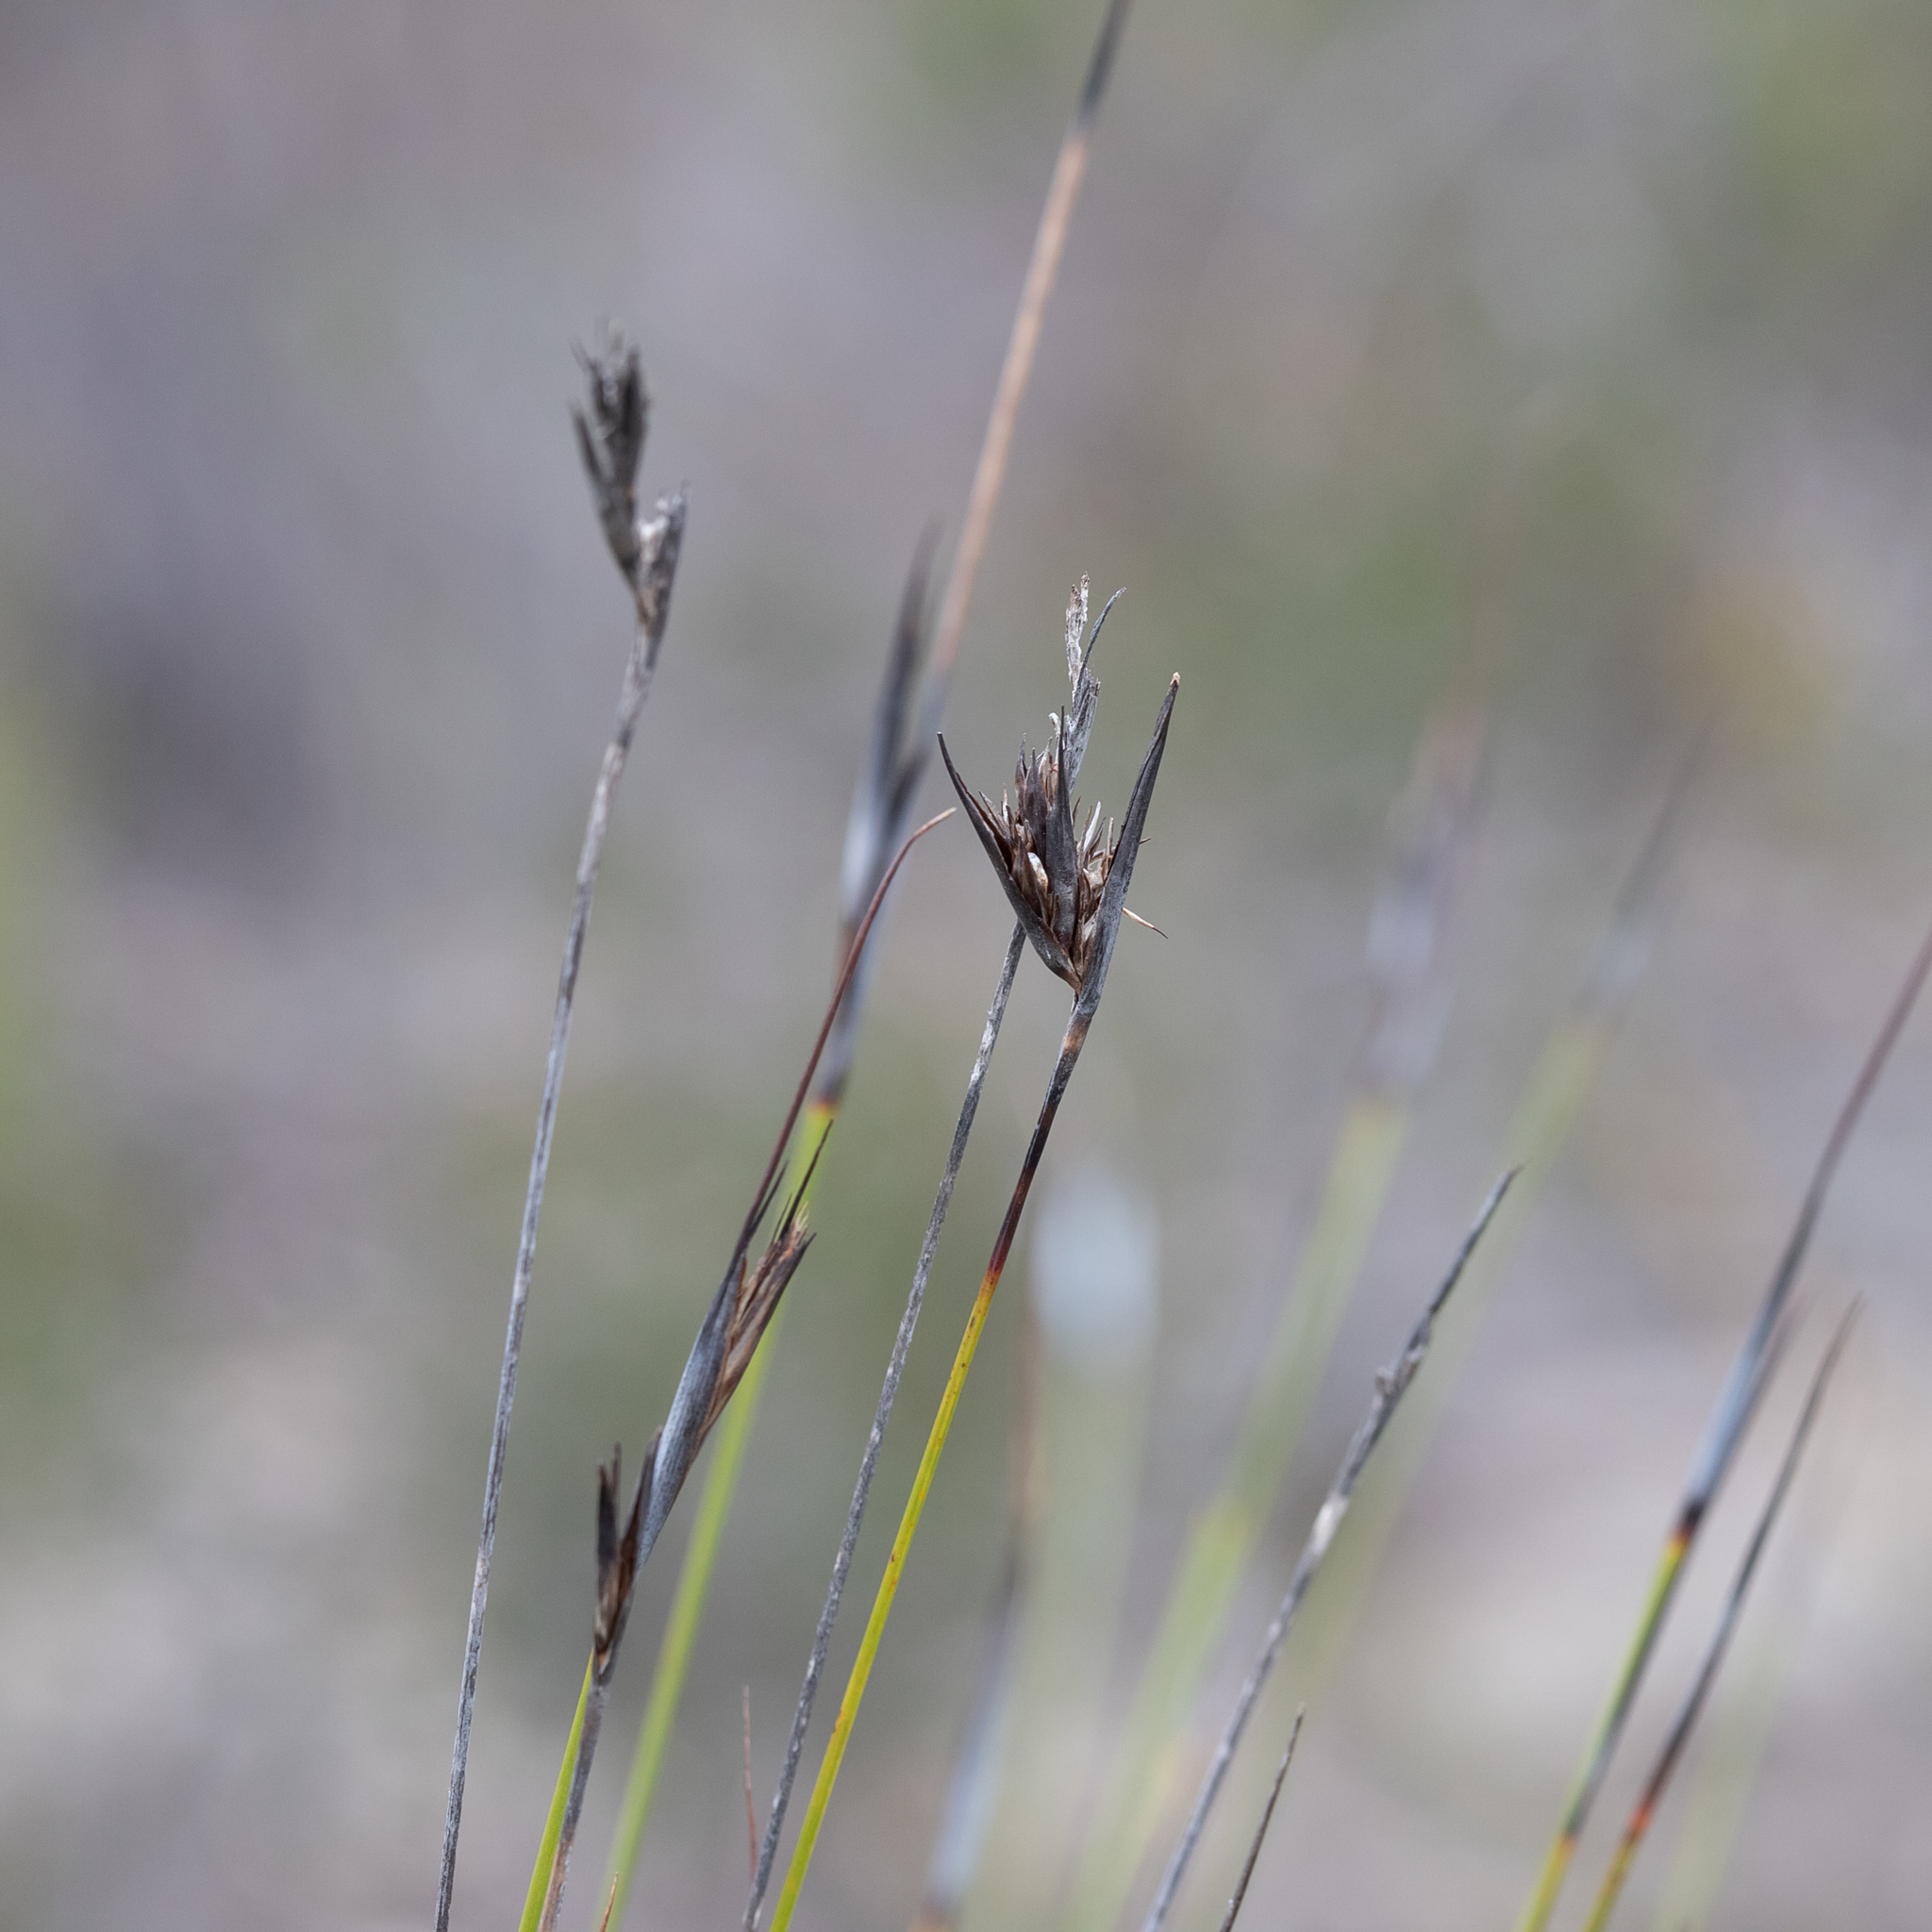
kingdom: Plantae
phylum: Tracheophyta
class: Liliopsida
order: Poales
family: Cyperaceae
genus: Lepidosperma
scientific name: Lepidosperma carphoides
